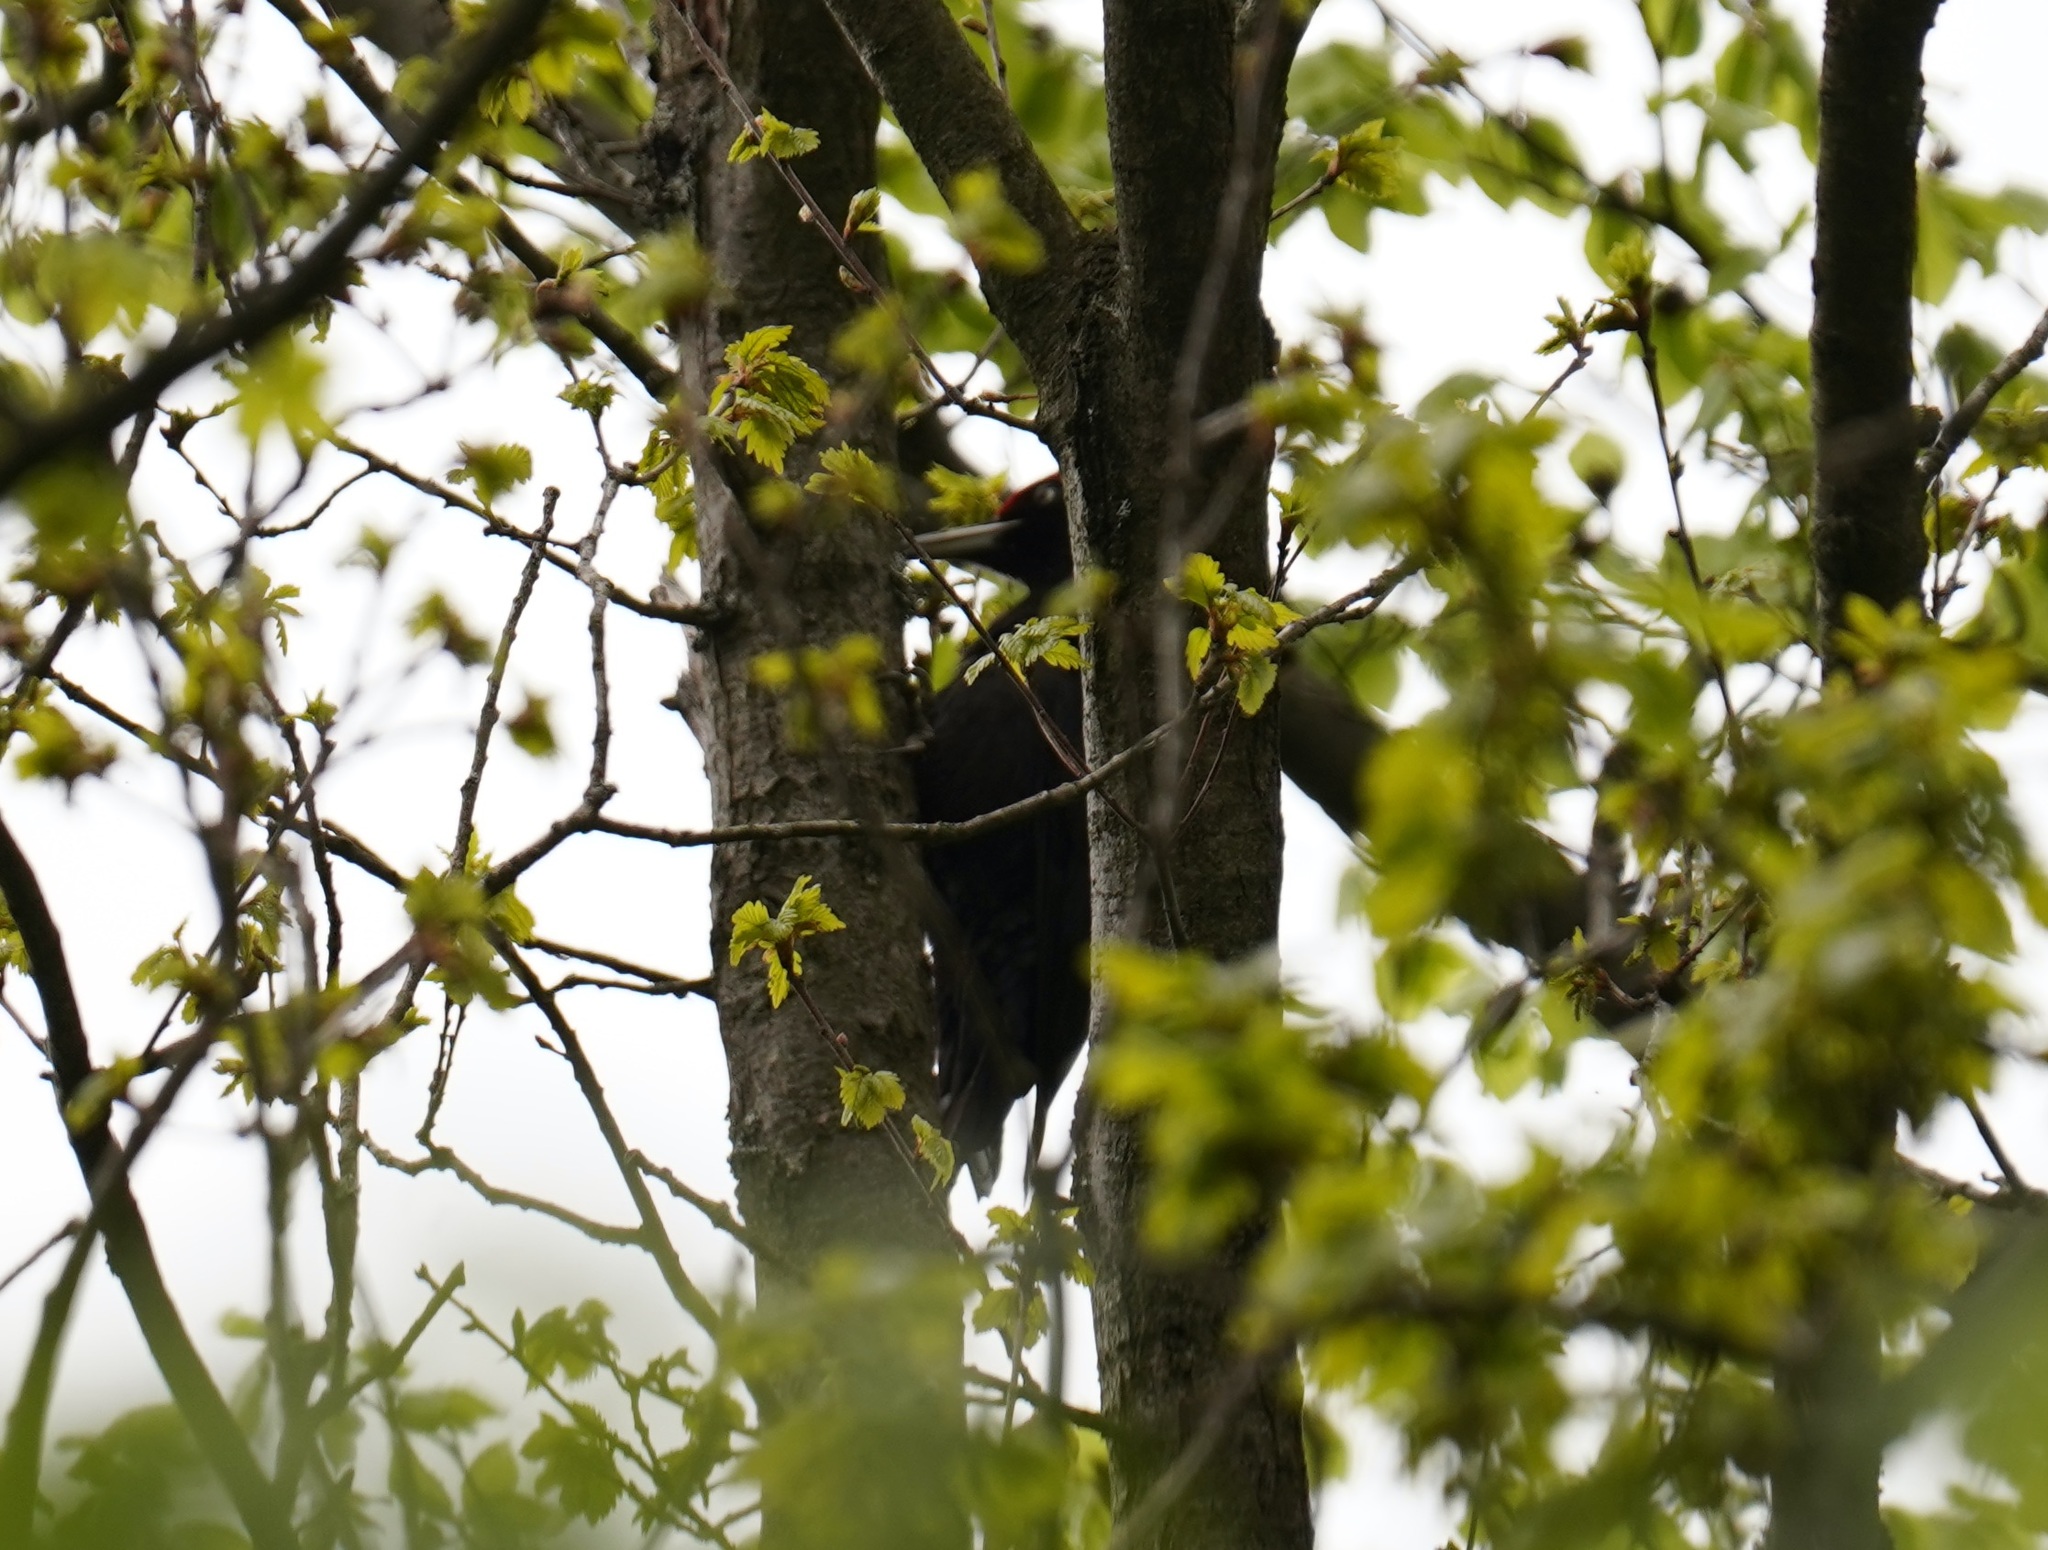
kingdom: Animalia
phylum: Chordata
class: Aves
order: Piciformes
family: Picidae
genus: Dryocopus
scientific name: Dryocopus martius
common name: Black woodpecker
